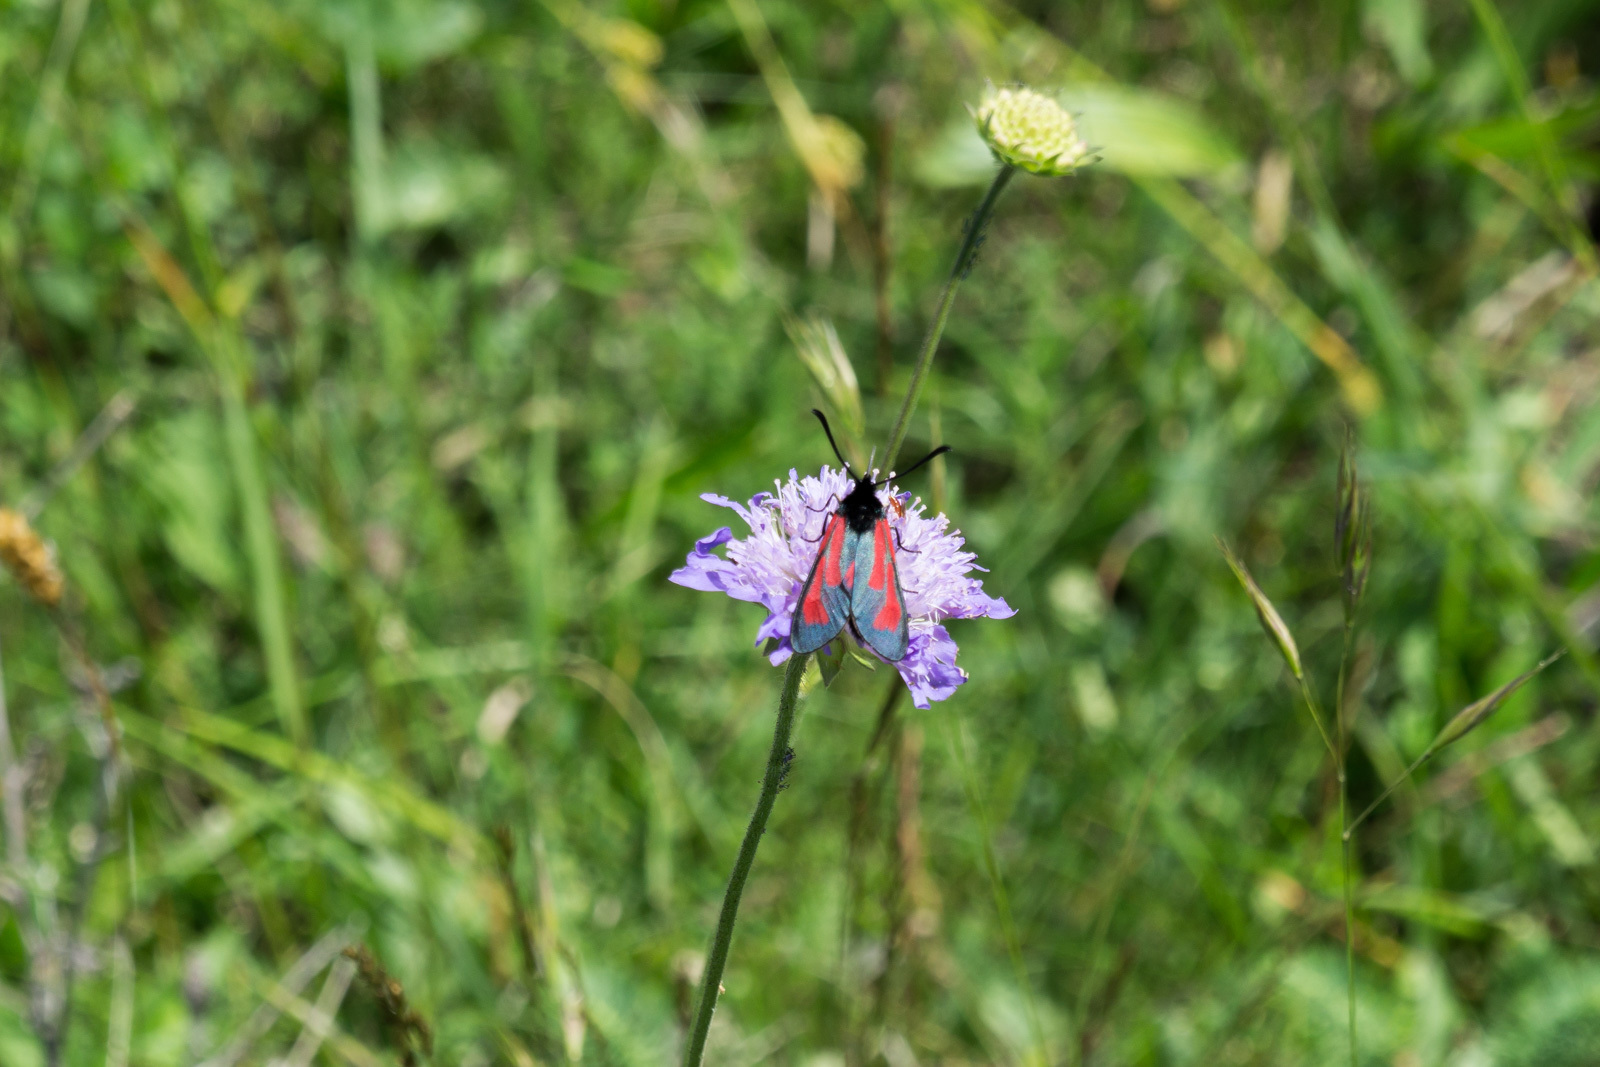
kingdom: Animalia
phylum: Arthropoda
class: Insecta
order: Lepidoptera
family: Zygaenidae
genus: Zygaena
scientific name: Zygaena purpuralis
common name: Transparent burnet
